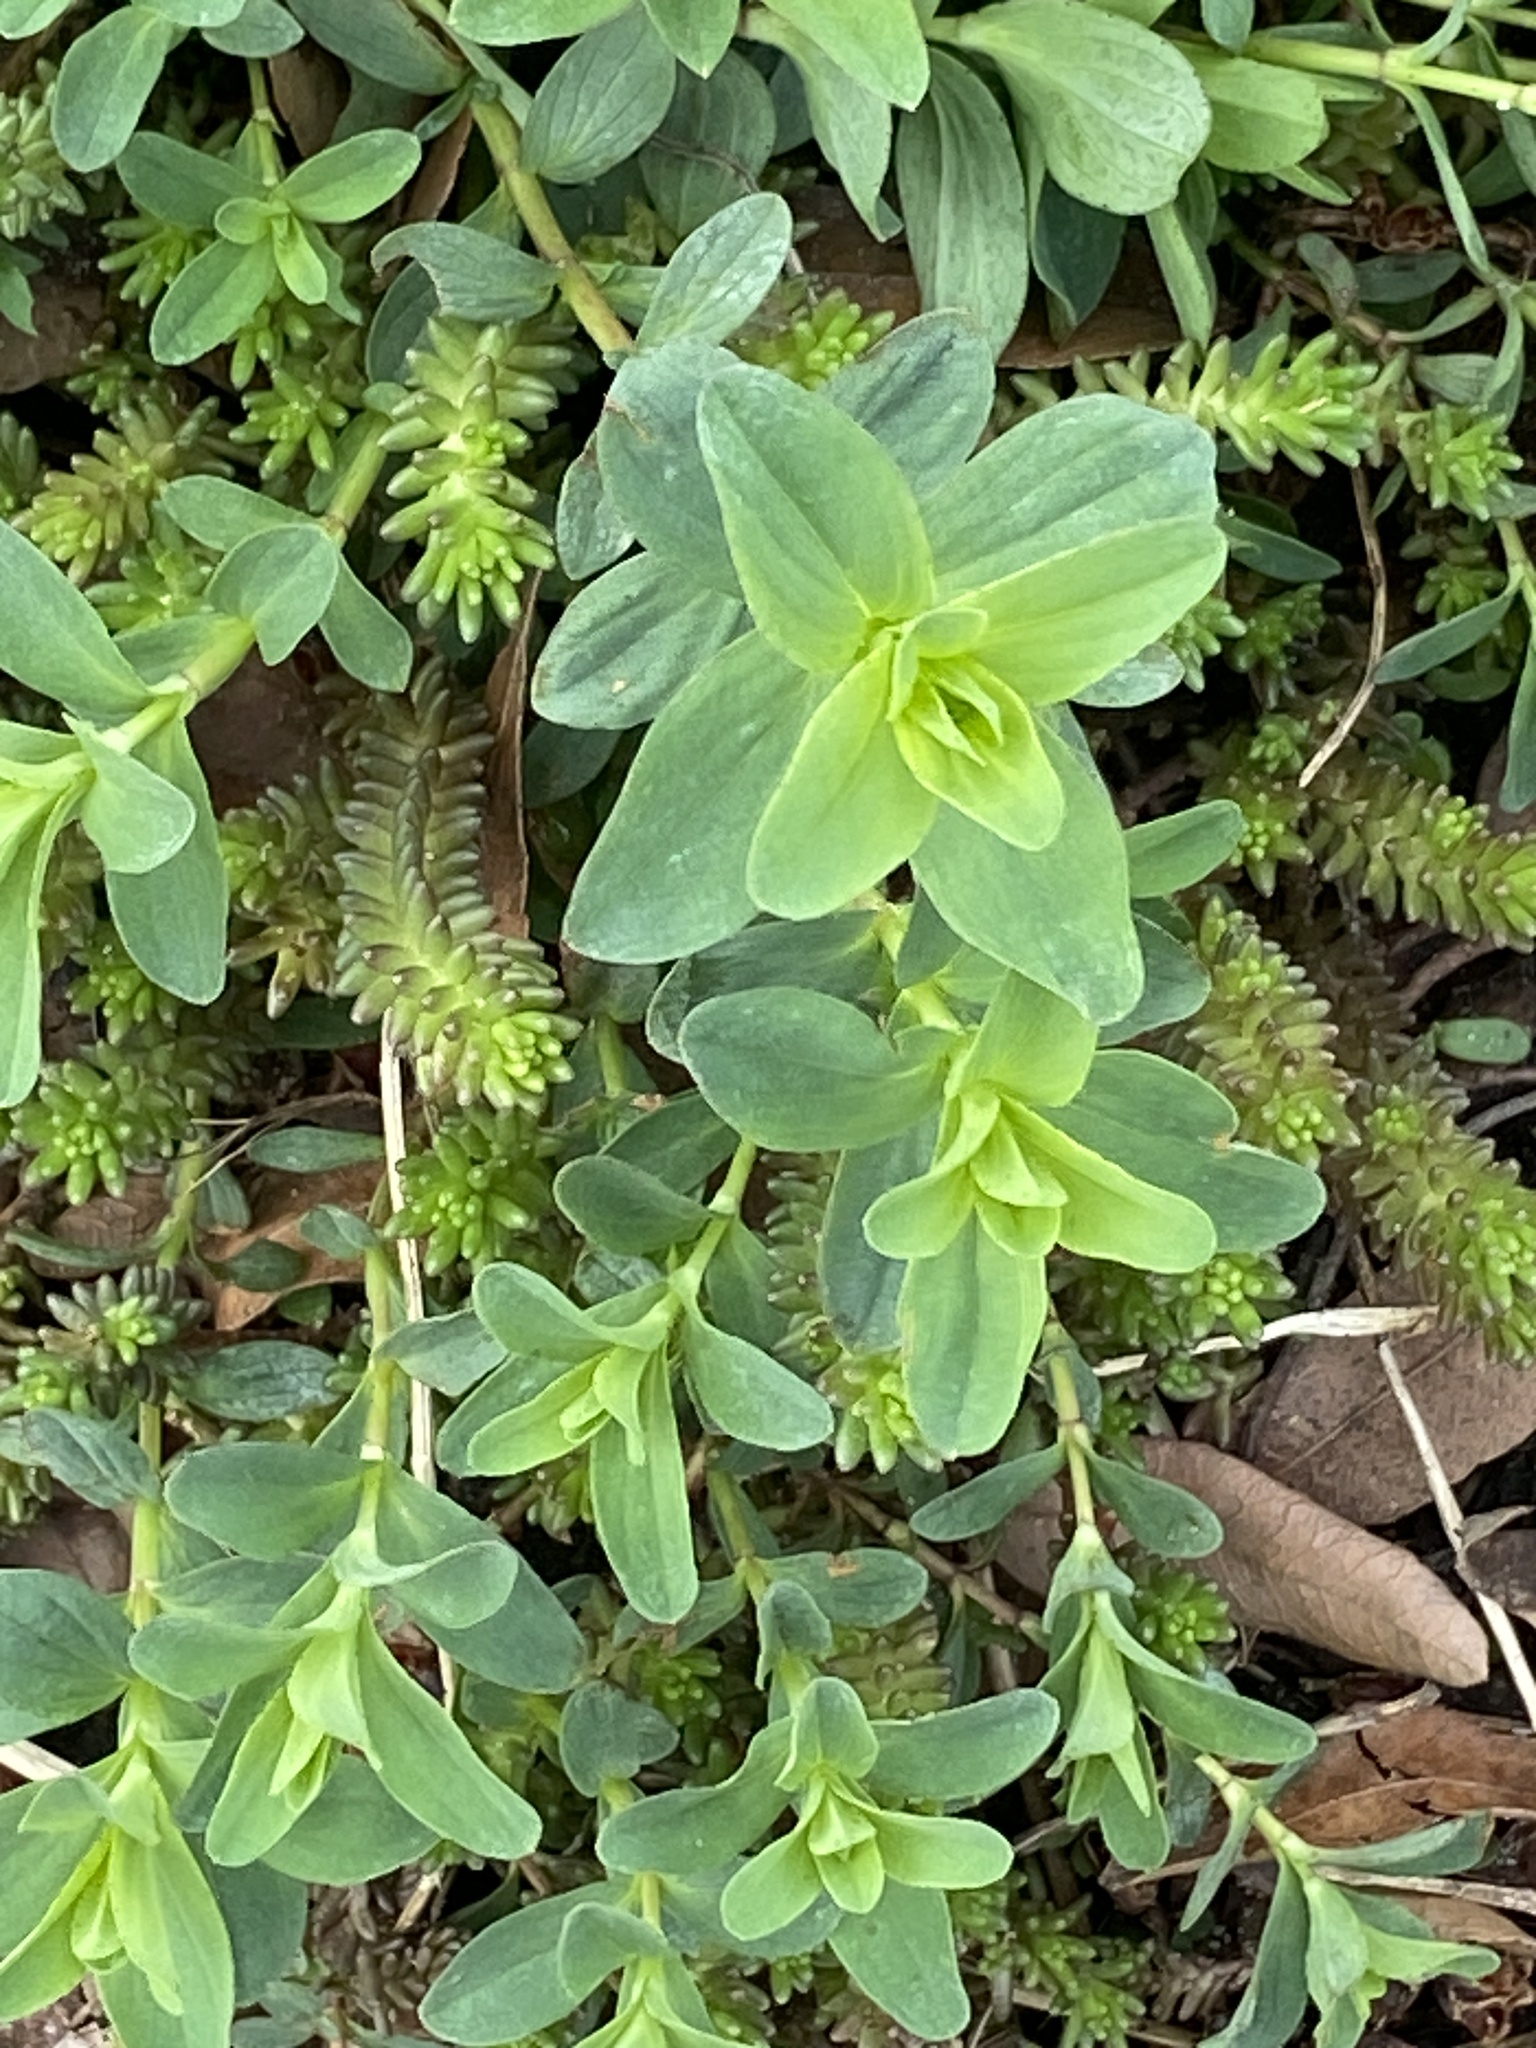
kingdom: Plantae
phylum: Tracheophyta
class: Magnoliopsida
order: Malpighiales
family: Hypericaceae
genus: Hypericum
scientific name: Hypericum perforatum
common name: Common st. johnswort
